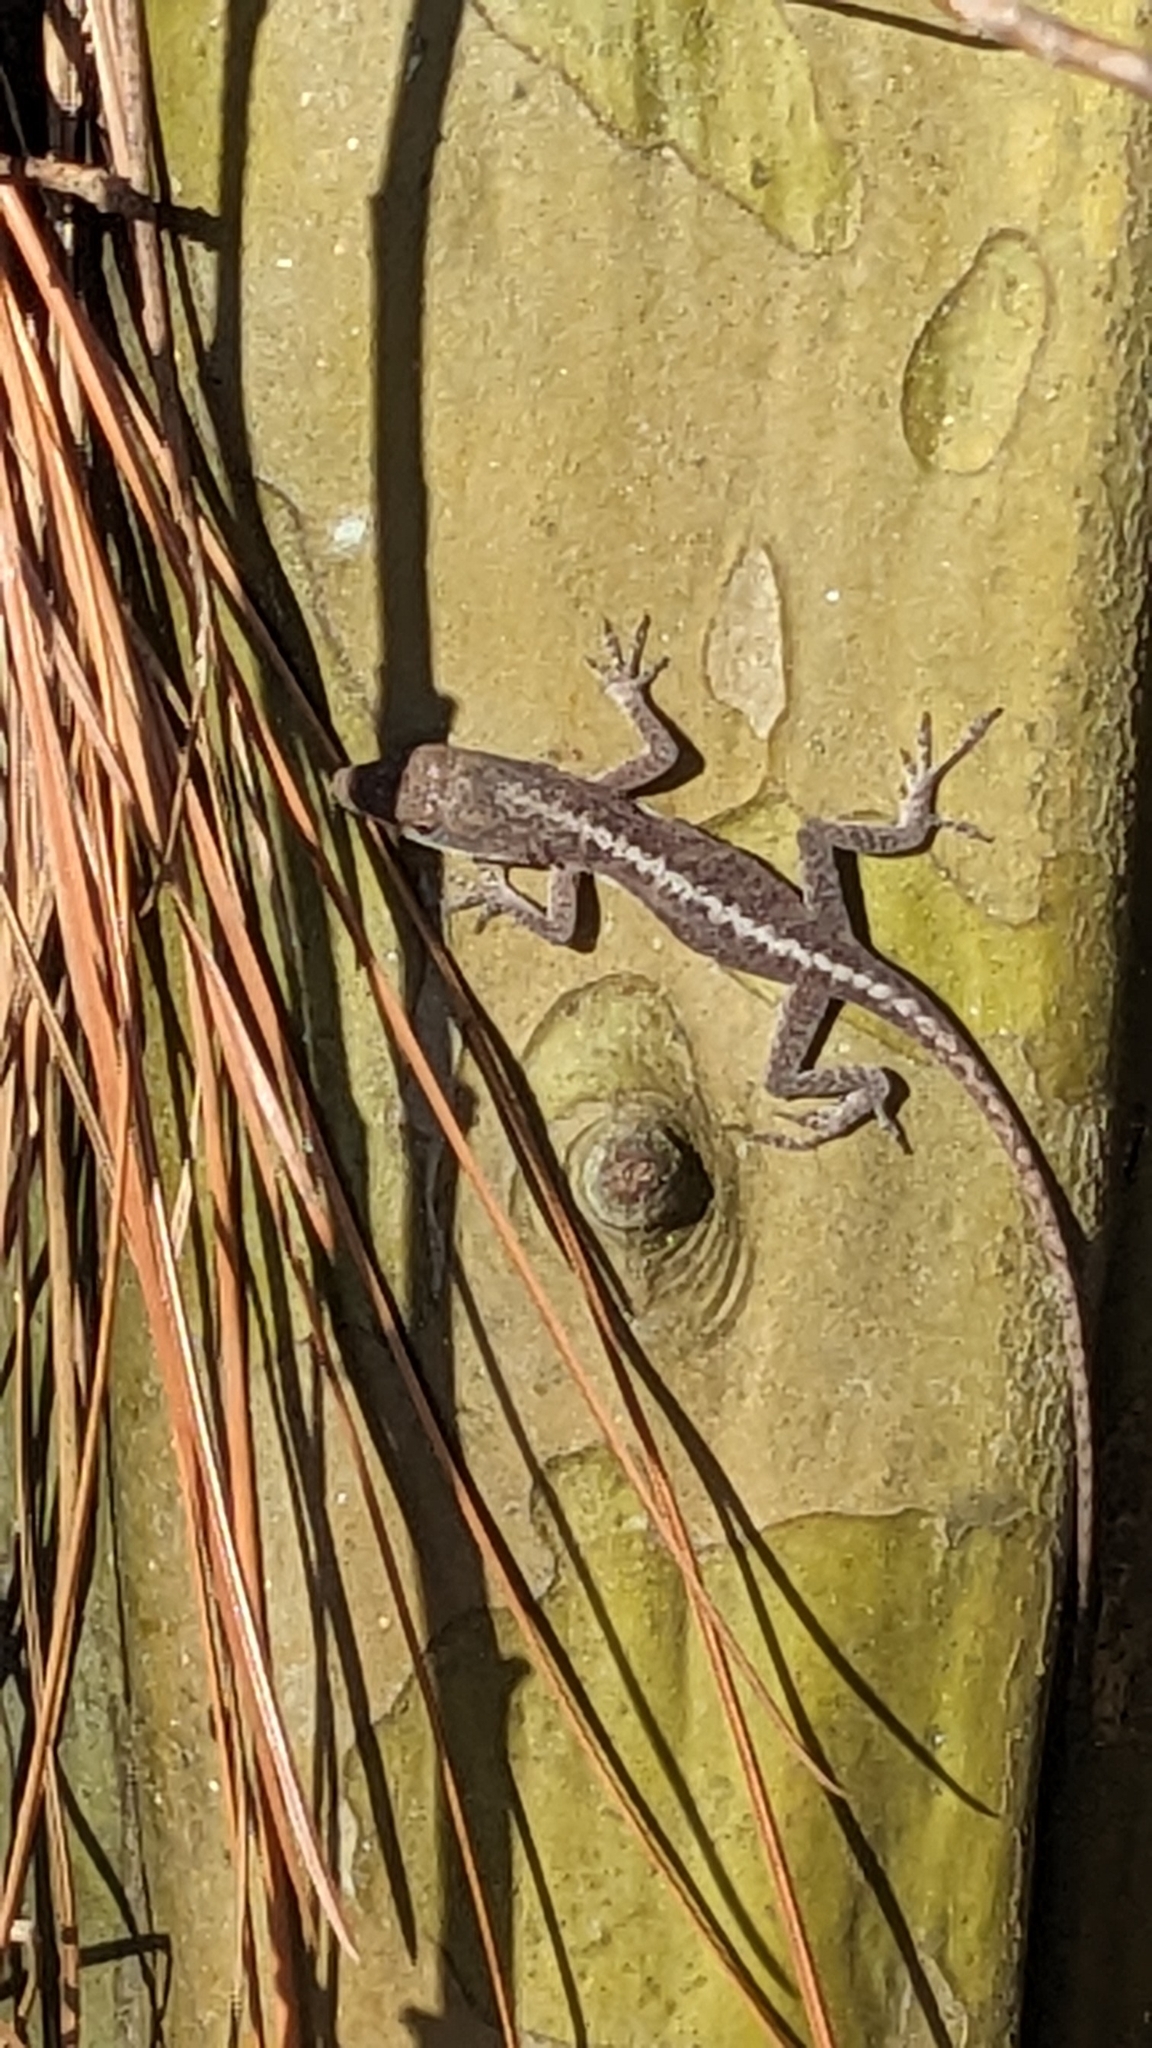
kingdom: Animalia
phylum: Chordata
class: Squamata
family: Dactyloidae
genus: Anolis
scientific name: Anolis carolinensis
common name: Green anole
